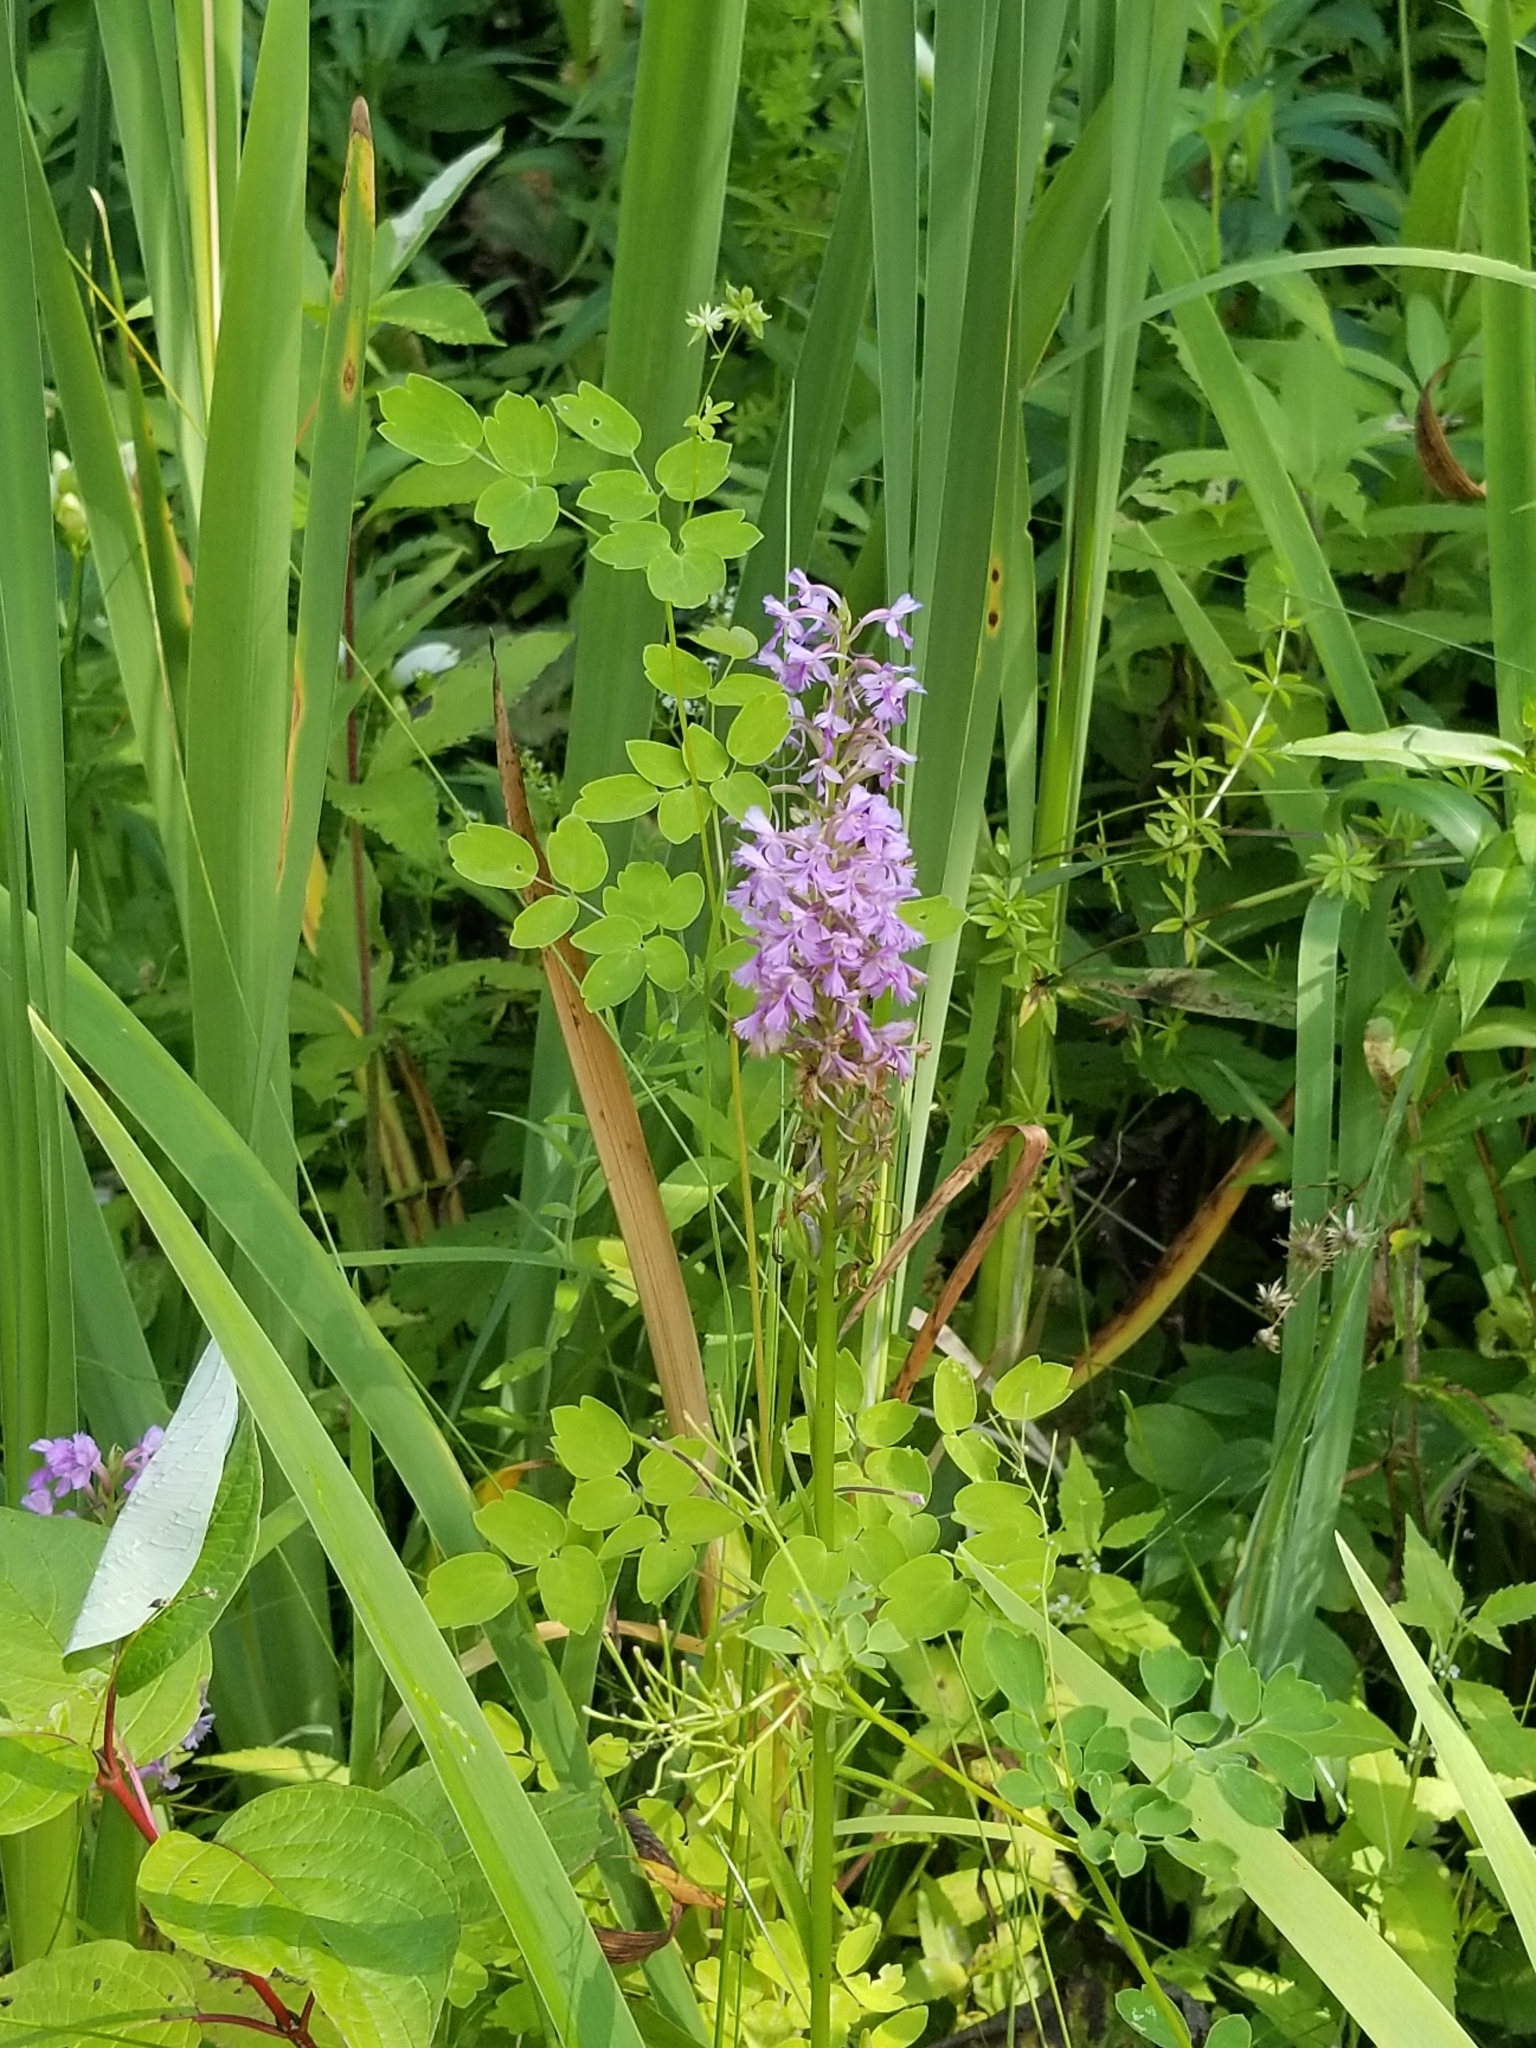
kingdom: Plantae
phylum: Tracheophyta
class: Liliopsida
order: Asparagales
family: Orchidaceae
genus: Platanthera
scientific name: Platanthera psycodes
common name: Lesser purple fringed orchid
